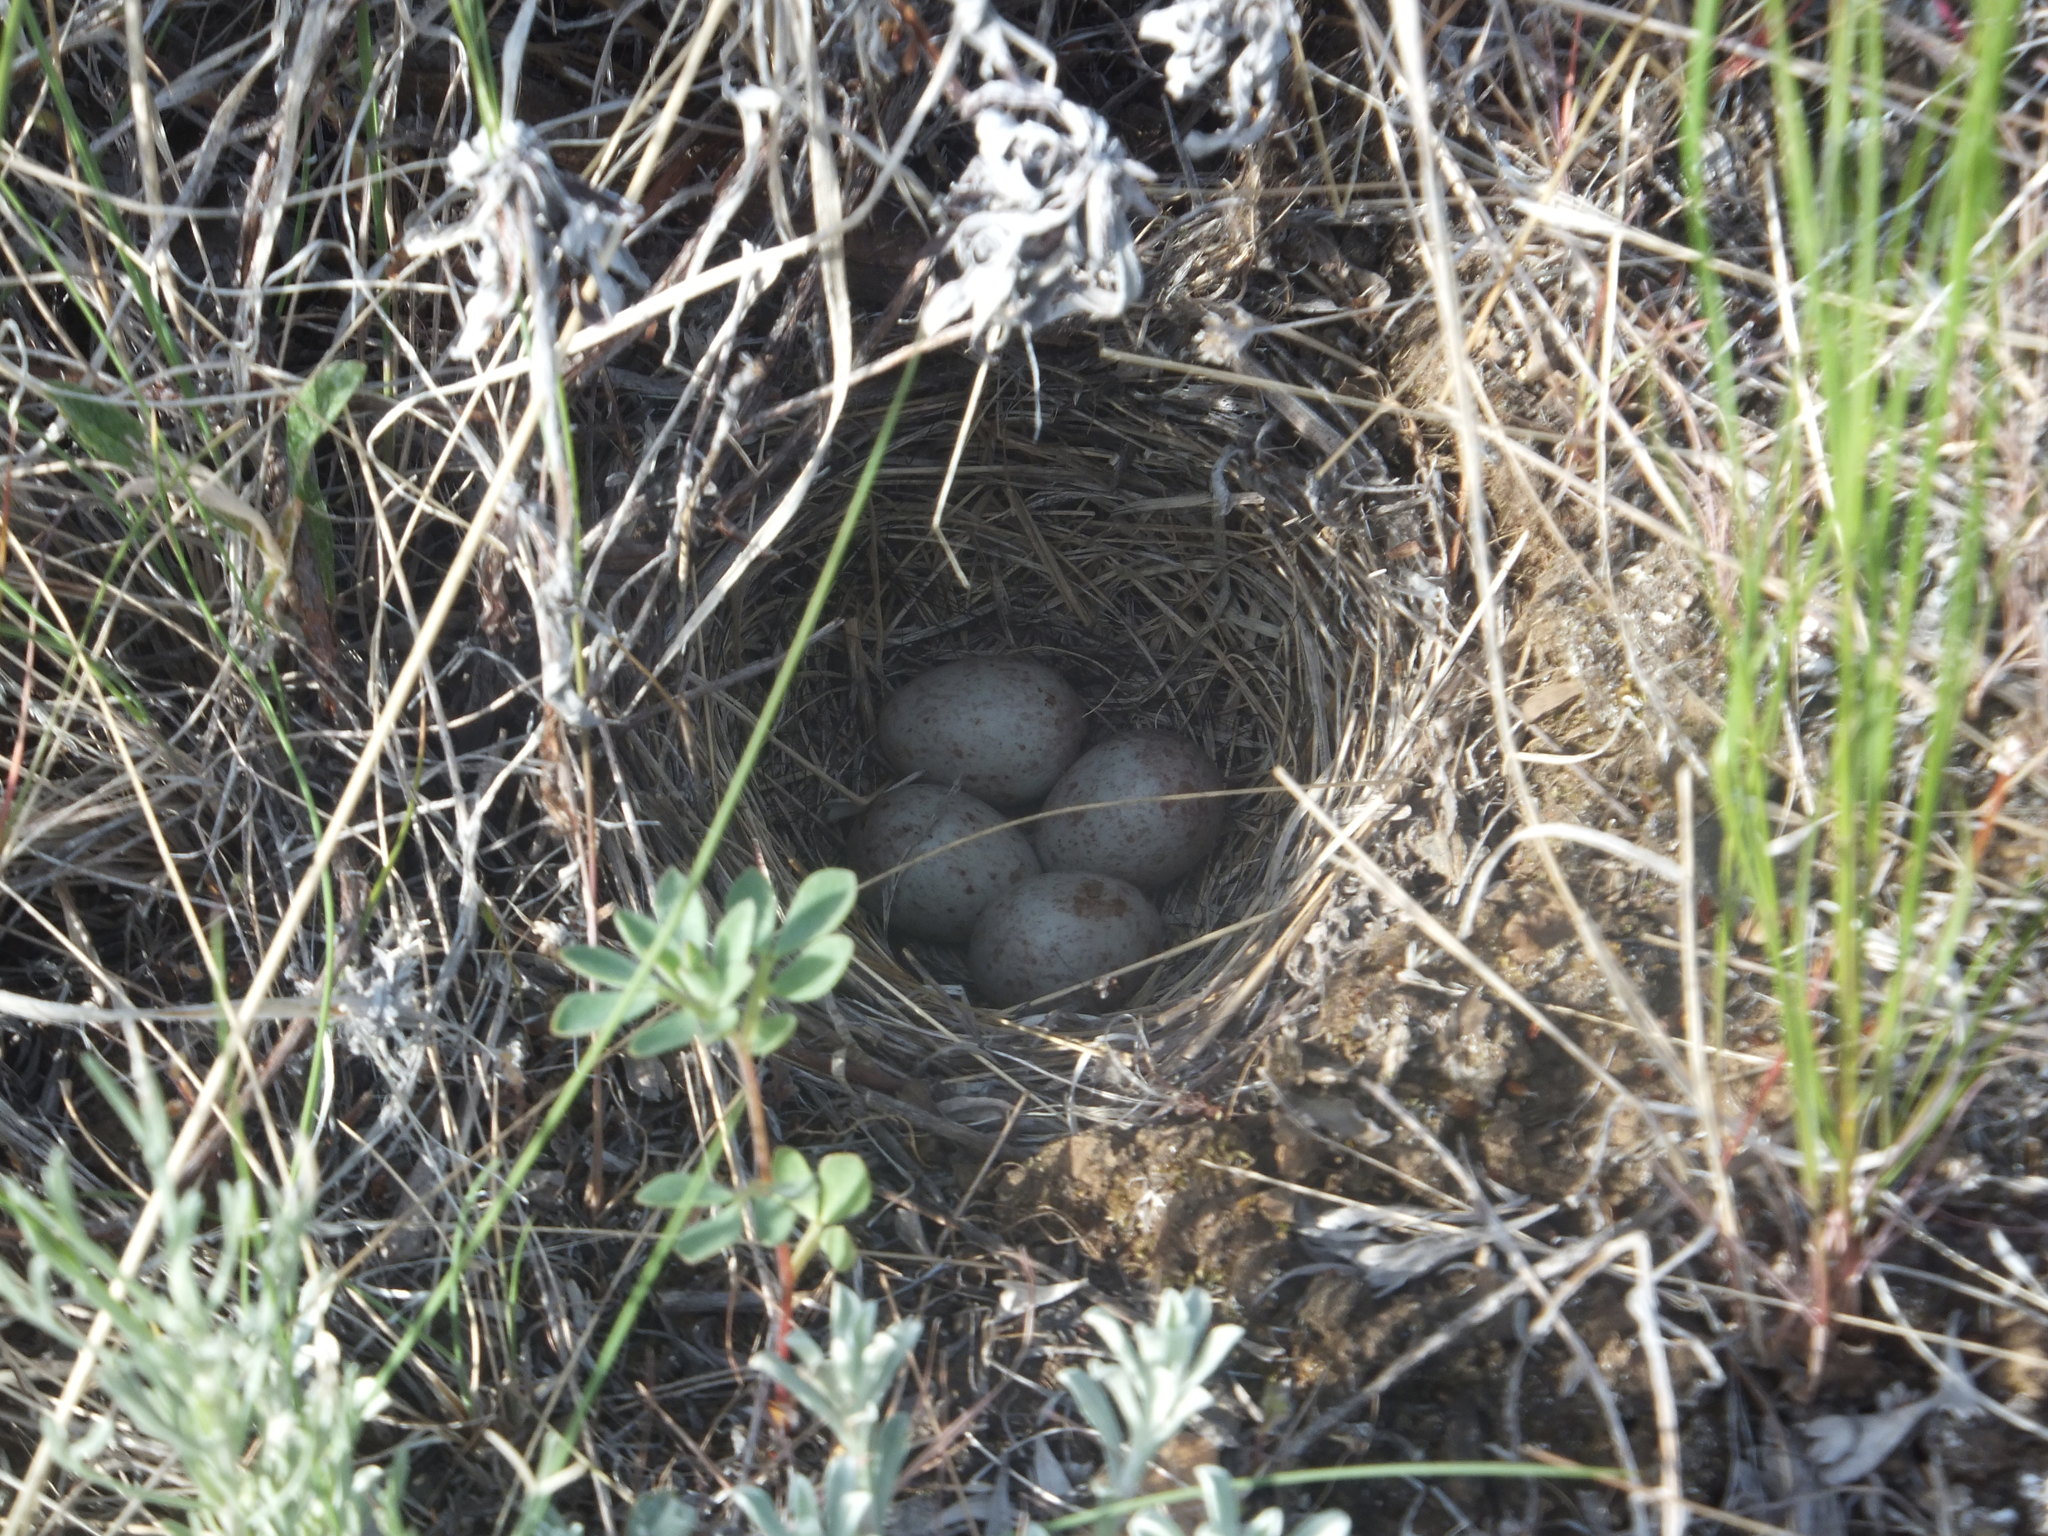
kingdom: Animalia
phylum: Chordata
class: Aves
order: Passeriformes
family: Passerellidae
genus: Pooecetes
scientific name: Pooecetes gramineus
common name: Vesper sparrow
